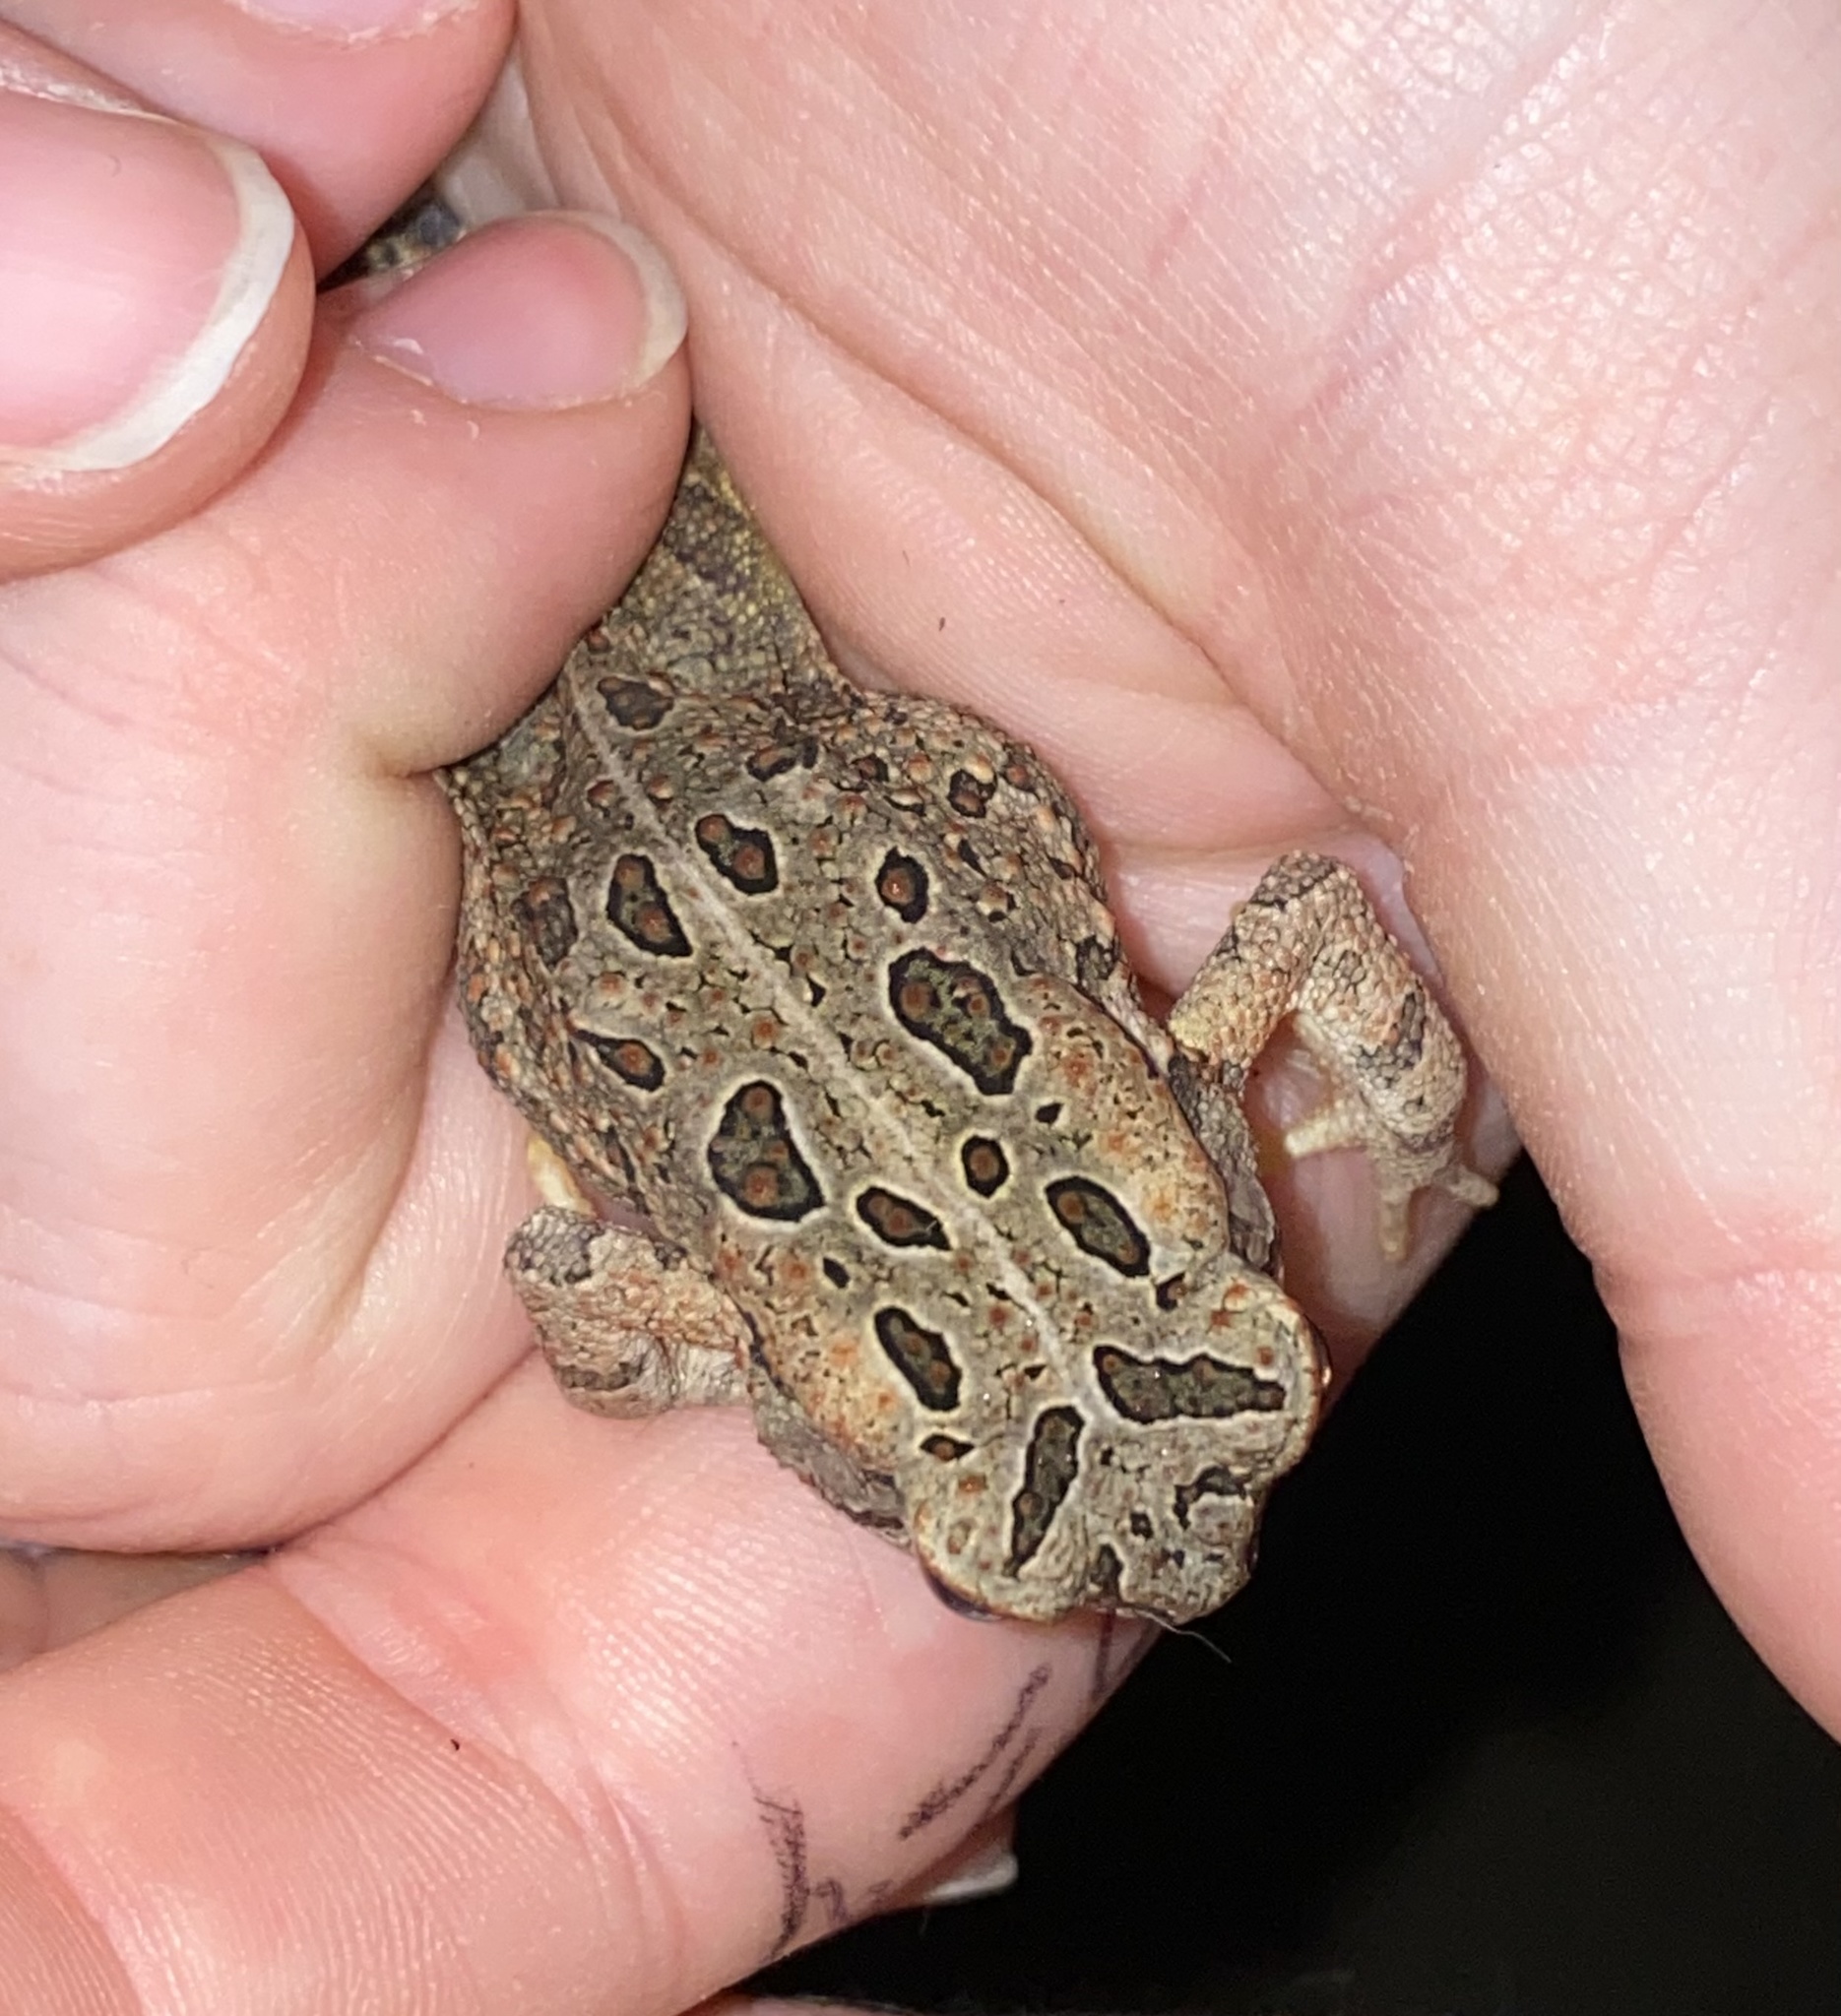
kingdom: Animalia
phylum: Chordata
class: Amphibia
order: Anura
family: Bufonidae
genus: Anaxyrus
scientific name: Anaxyrus fowleri
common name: Fowler's toad
